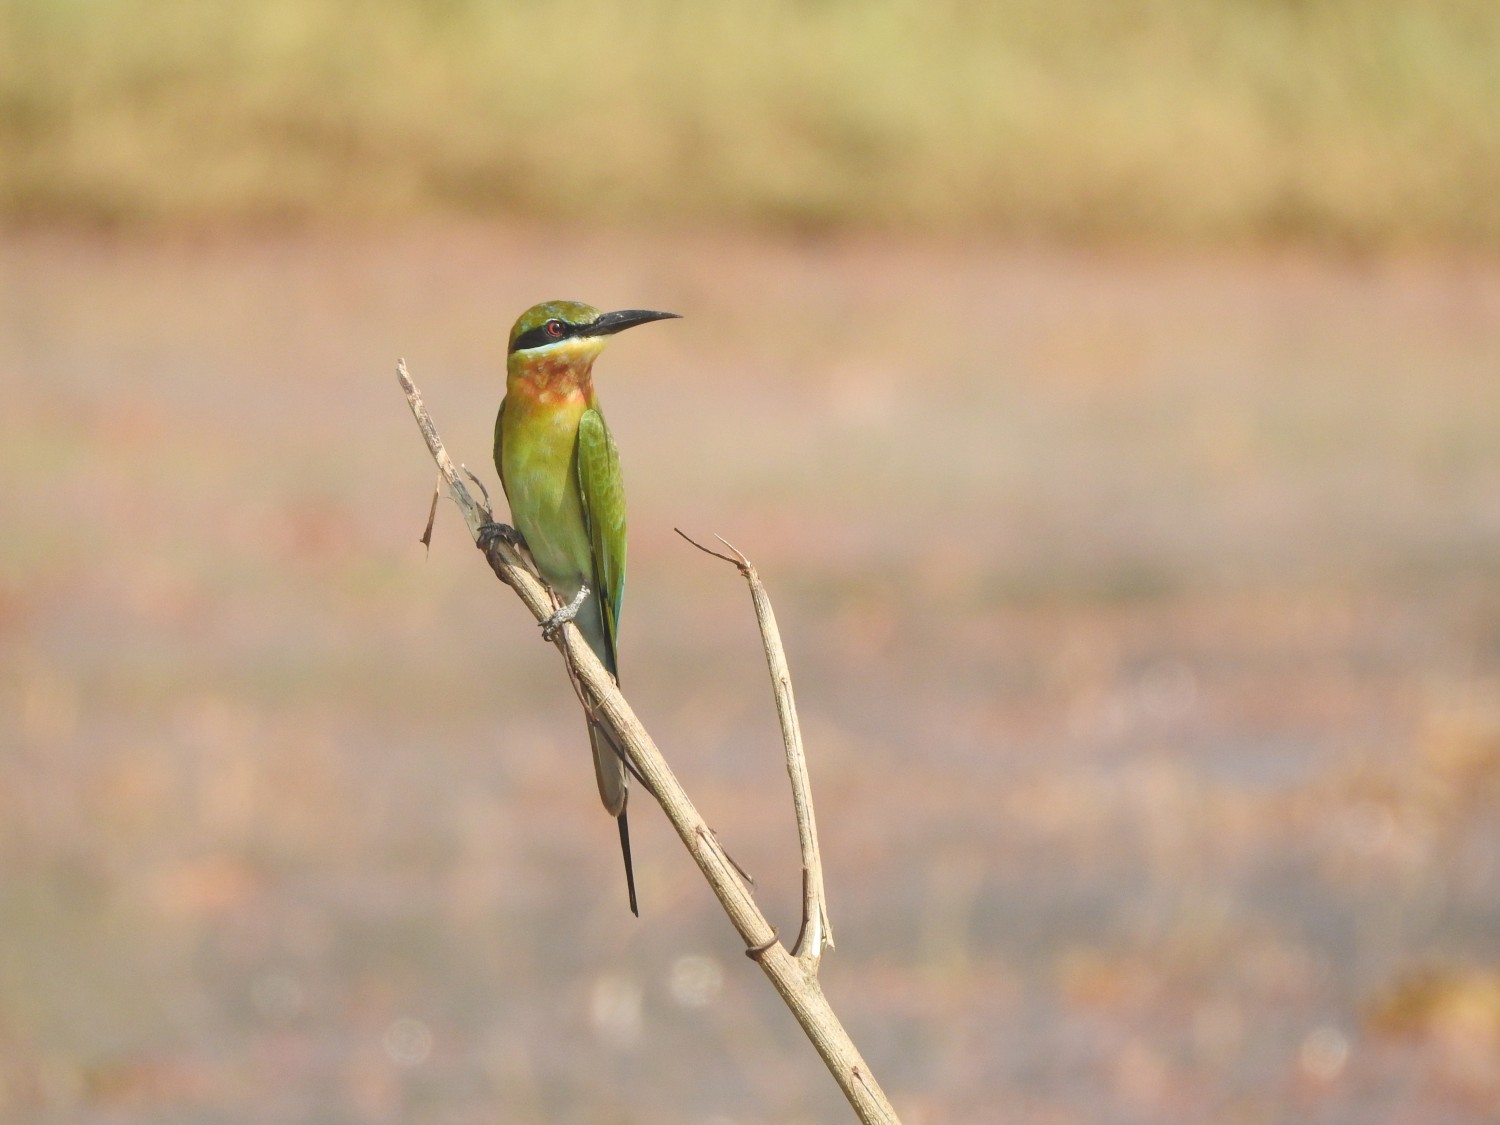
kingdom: Animalia
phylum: Chordata
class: Aves
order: Coraciiformes
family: Meropidae
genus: Merops
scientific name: Merops philippinus
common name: Blue-tailed bee-eater
